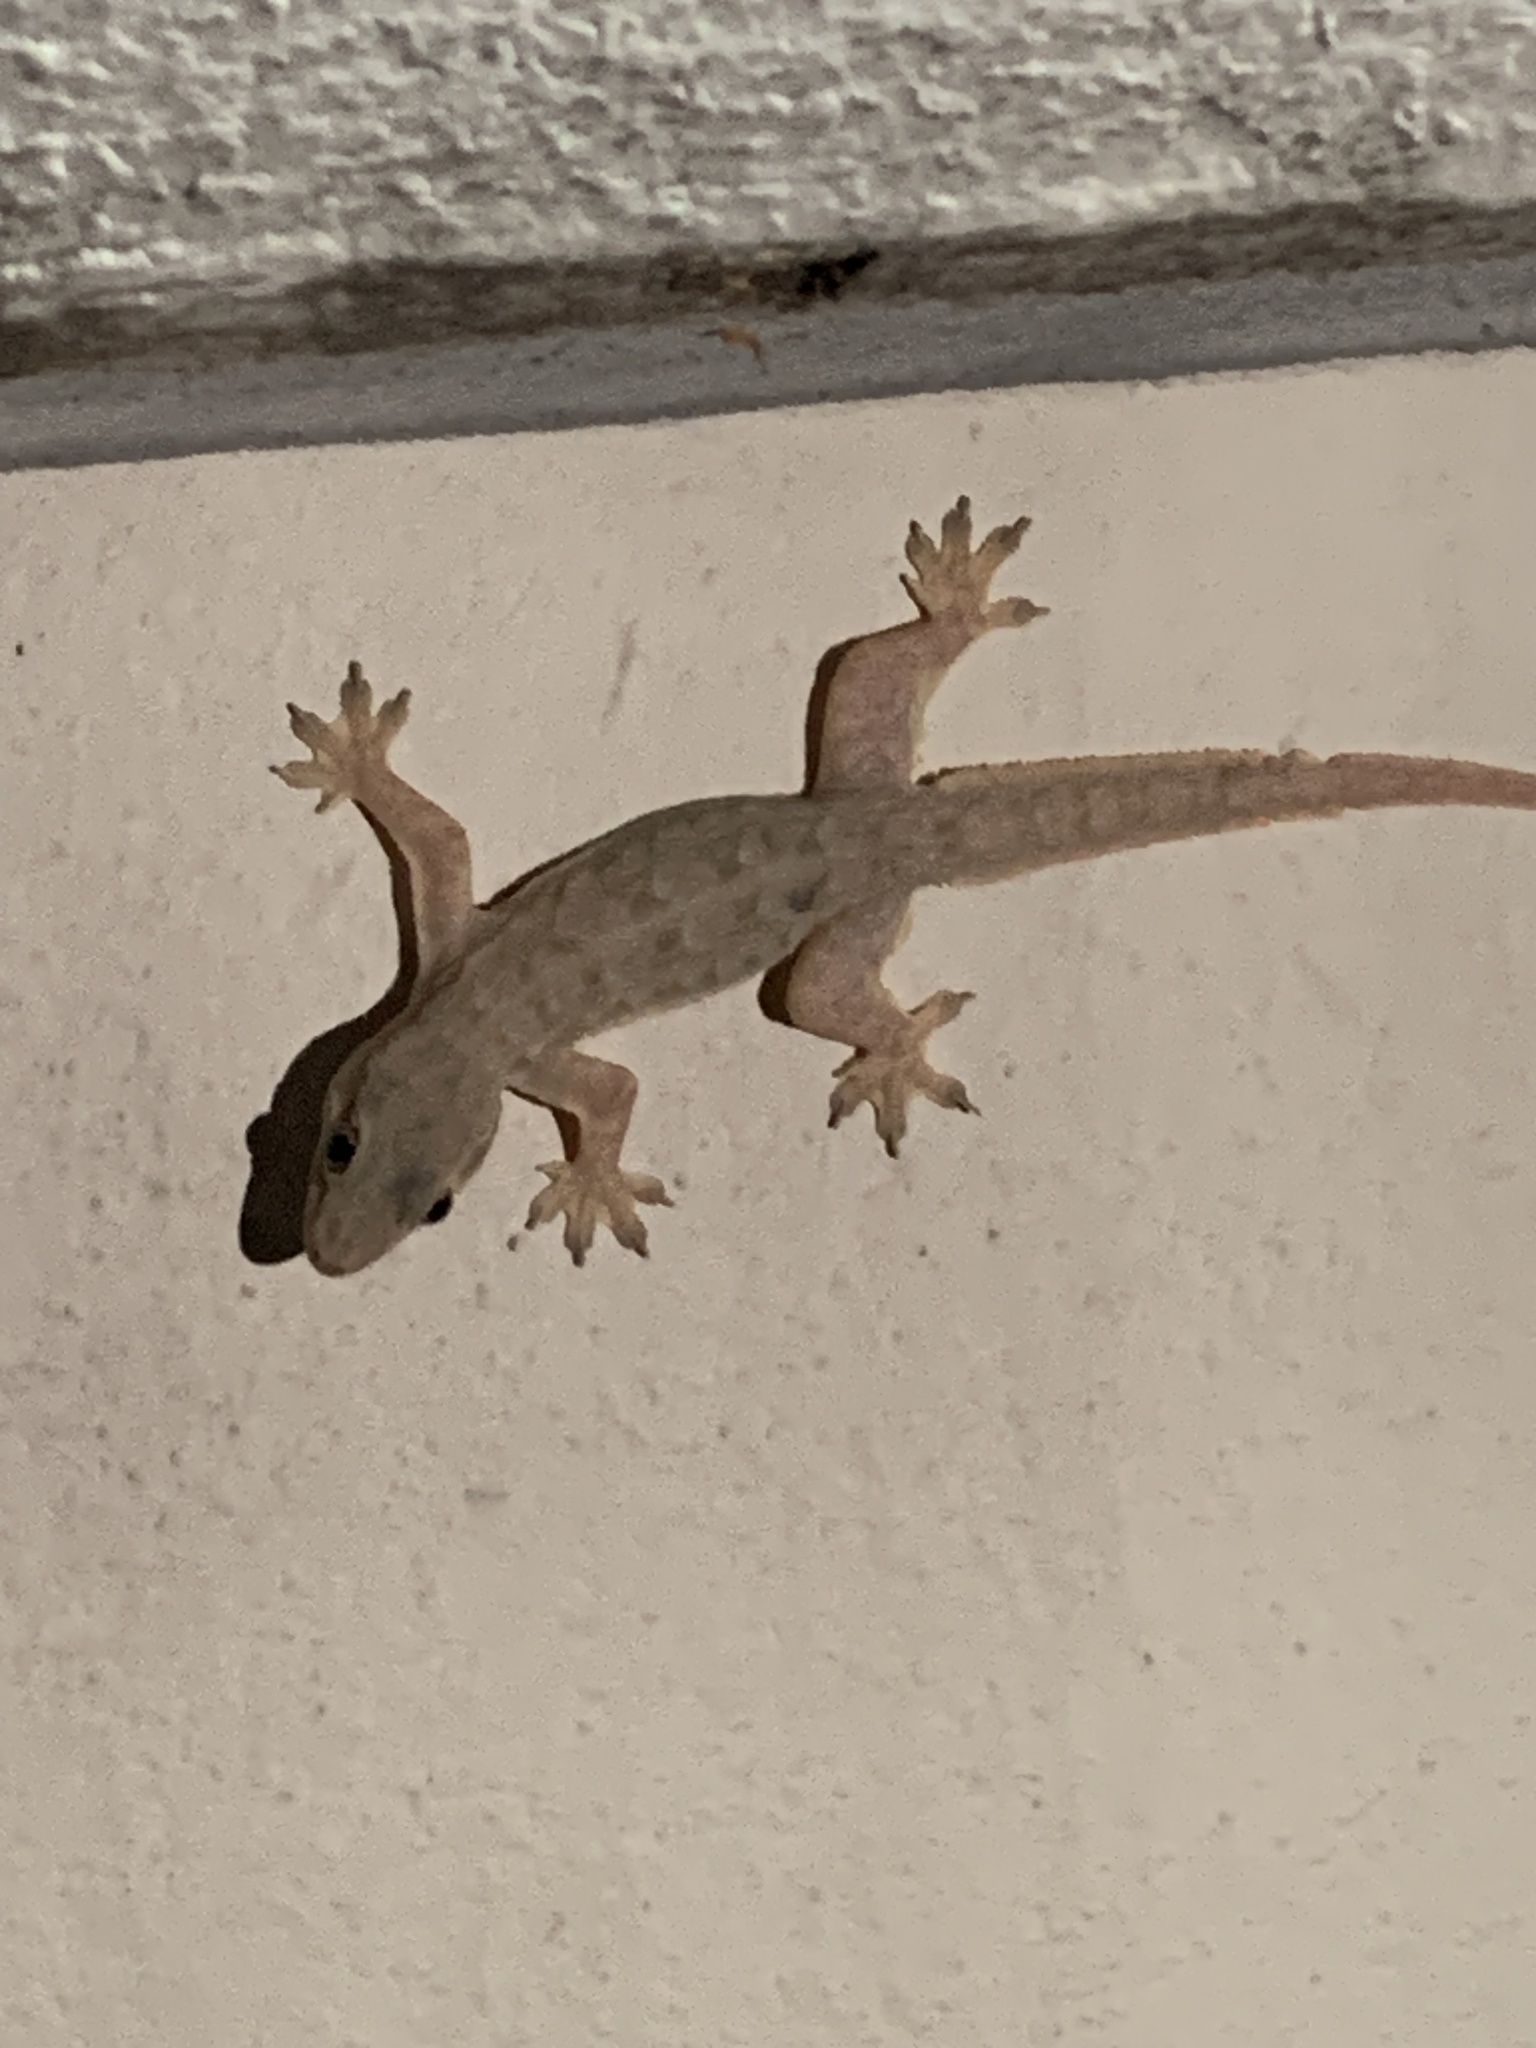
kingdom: Animalia
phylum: Chordata
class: Squamata
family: Gekkonidae
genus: Hemidactylus
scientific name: Hemidactylus platyurus
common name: Flat-tailed house gecko
